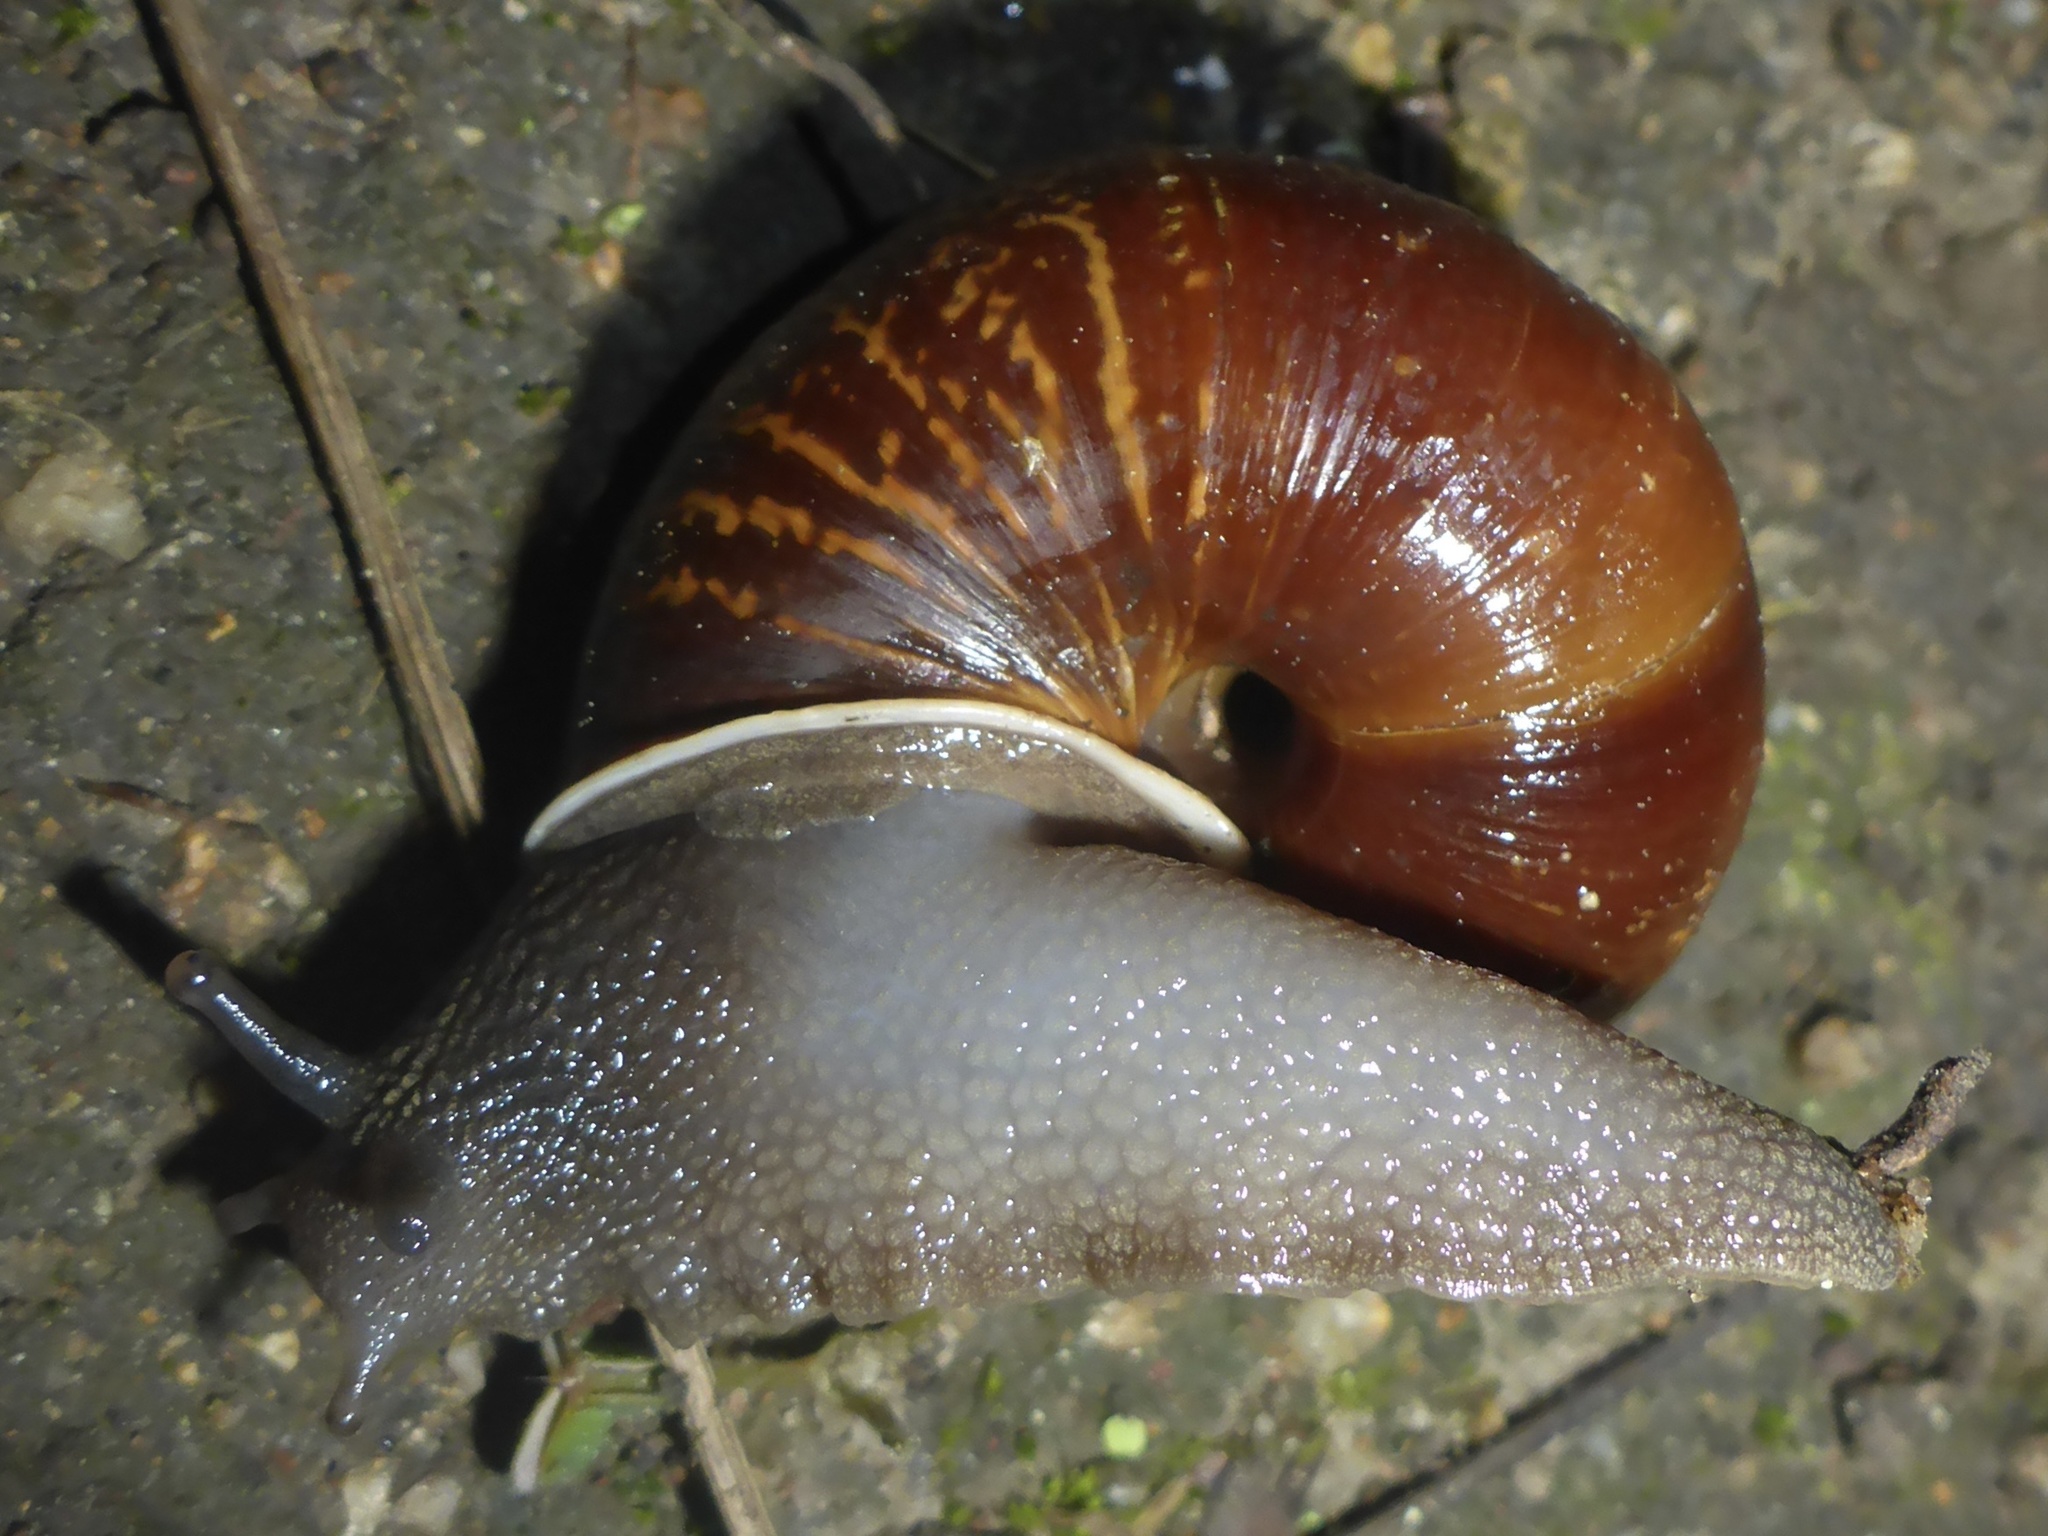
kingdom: Animalia
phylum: Mollusca
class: Gastropoda
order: Stylommatophora
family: Xanthonychidae
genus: Helminthoglypta
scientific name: Helminthoglypta arrosa
